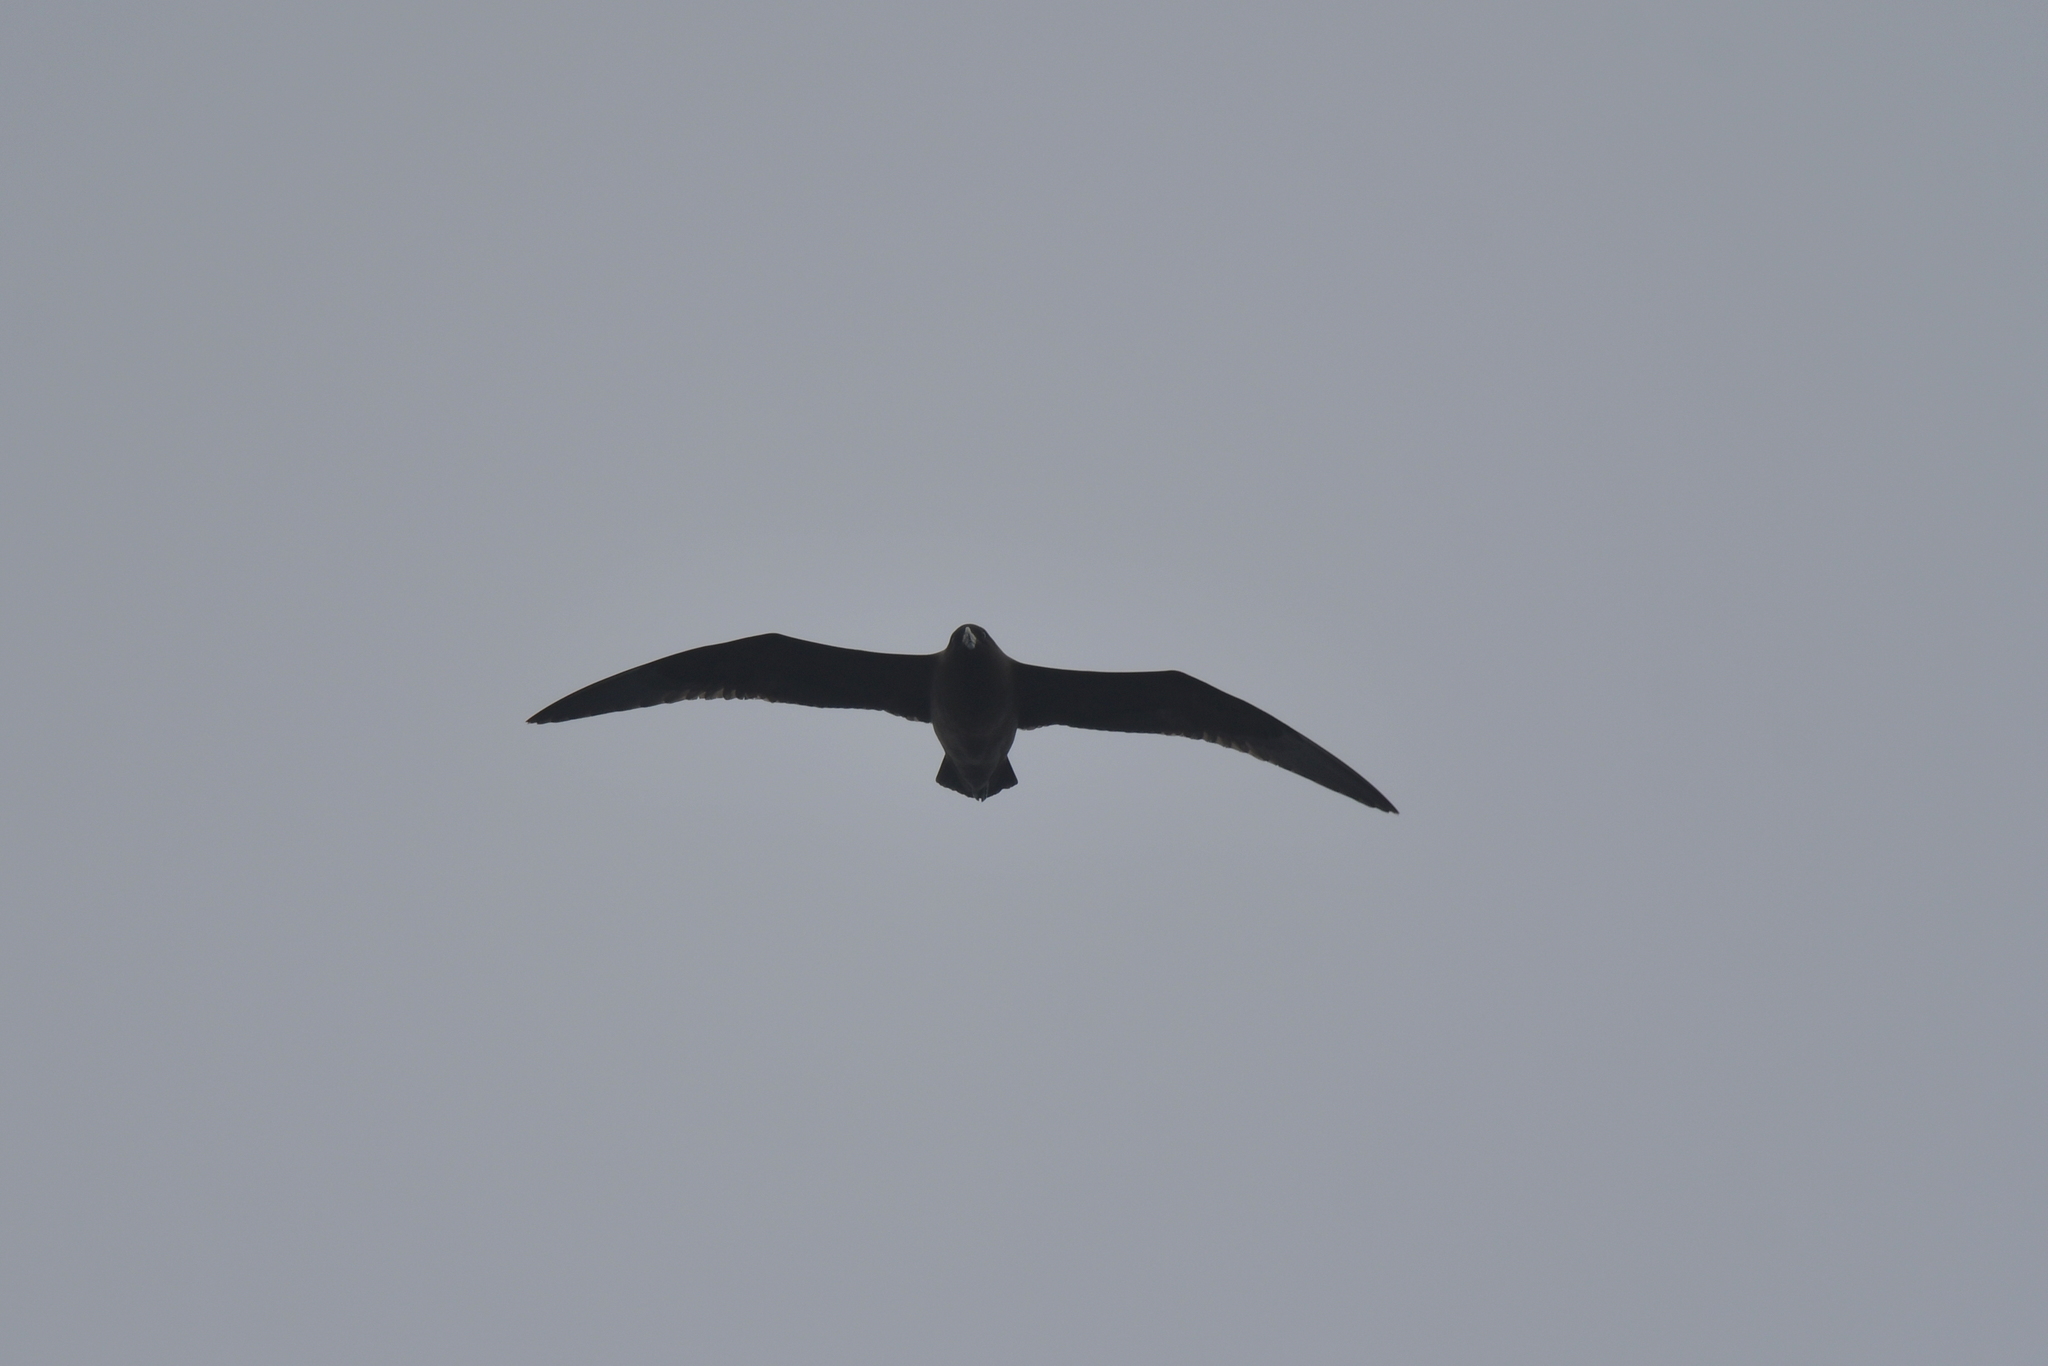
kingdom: Animalia
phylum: Chordata
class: Aves
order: Procellariiformes
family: Procellariidae
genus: Procellaria
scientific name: Procellaria aequinoctialis
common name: White-chinned petrel
